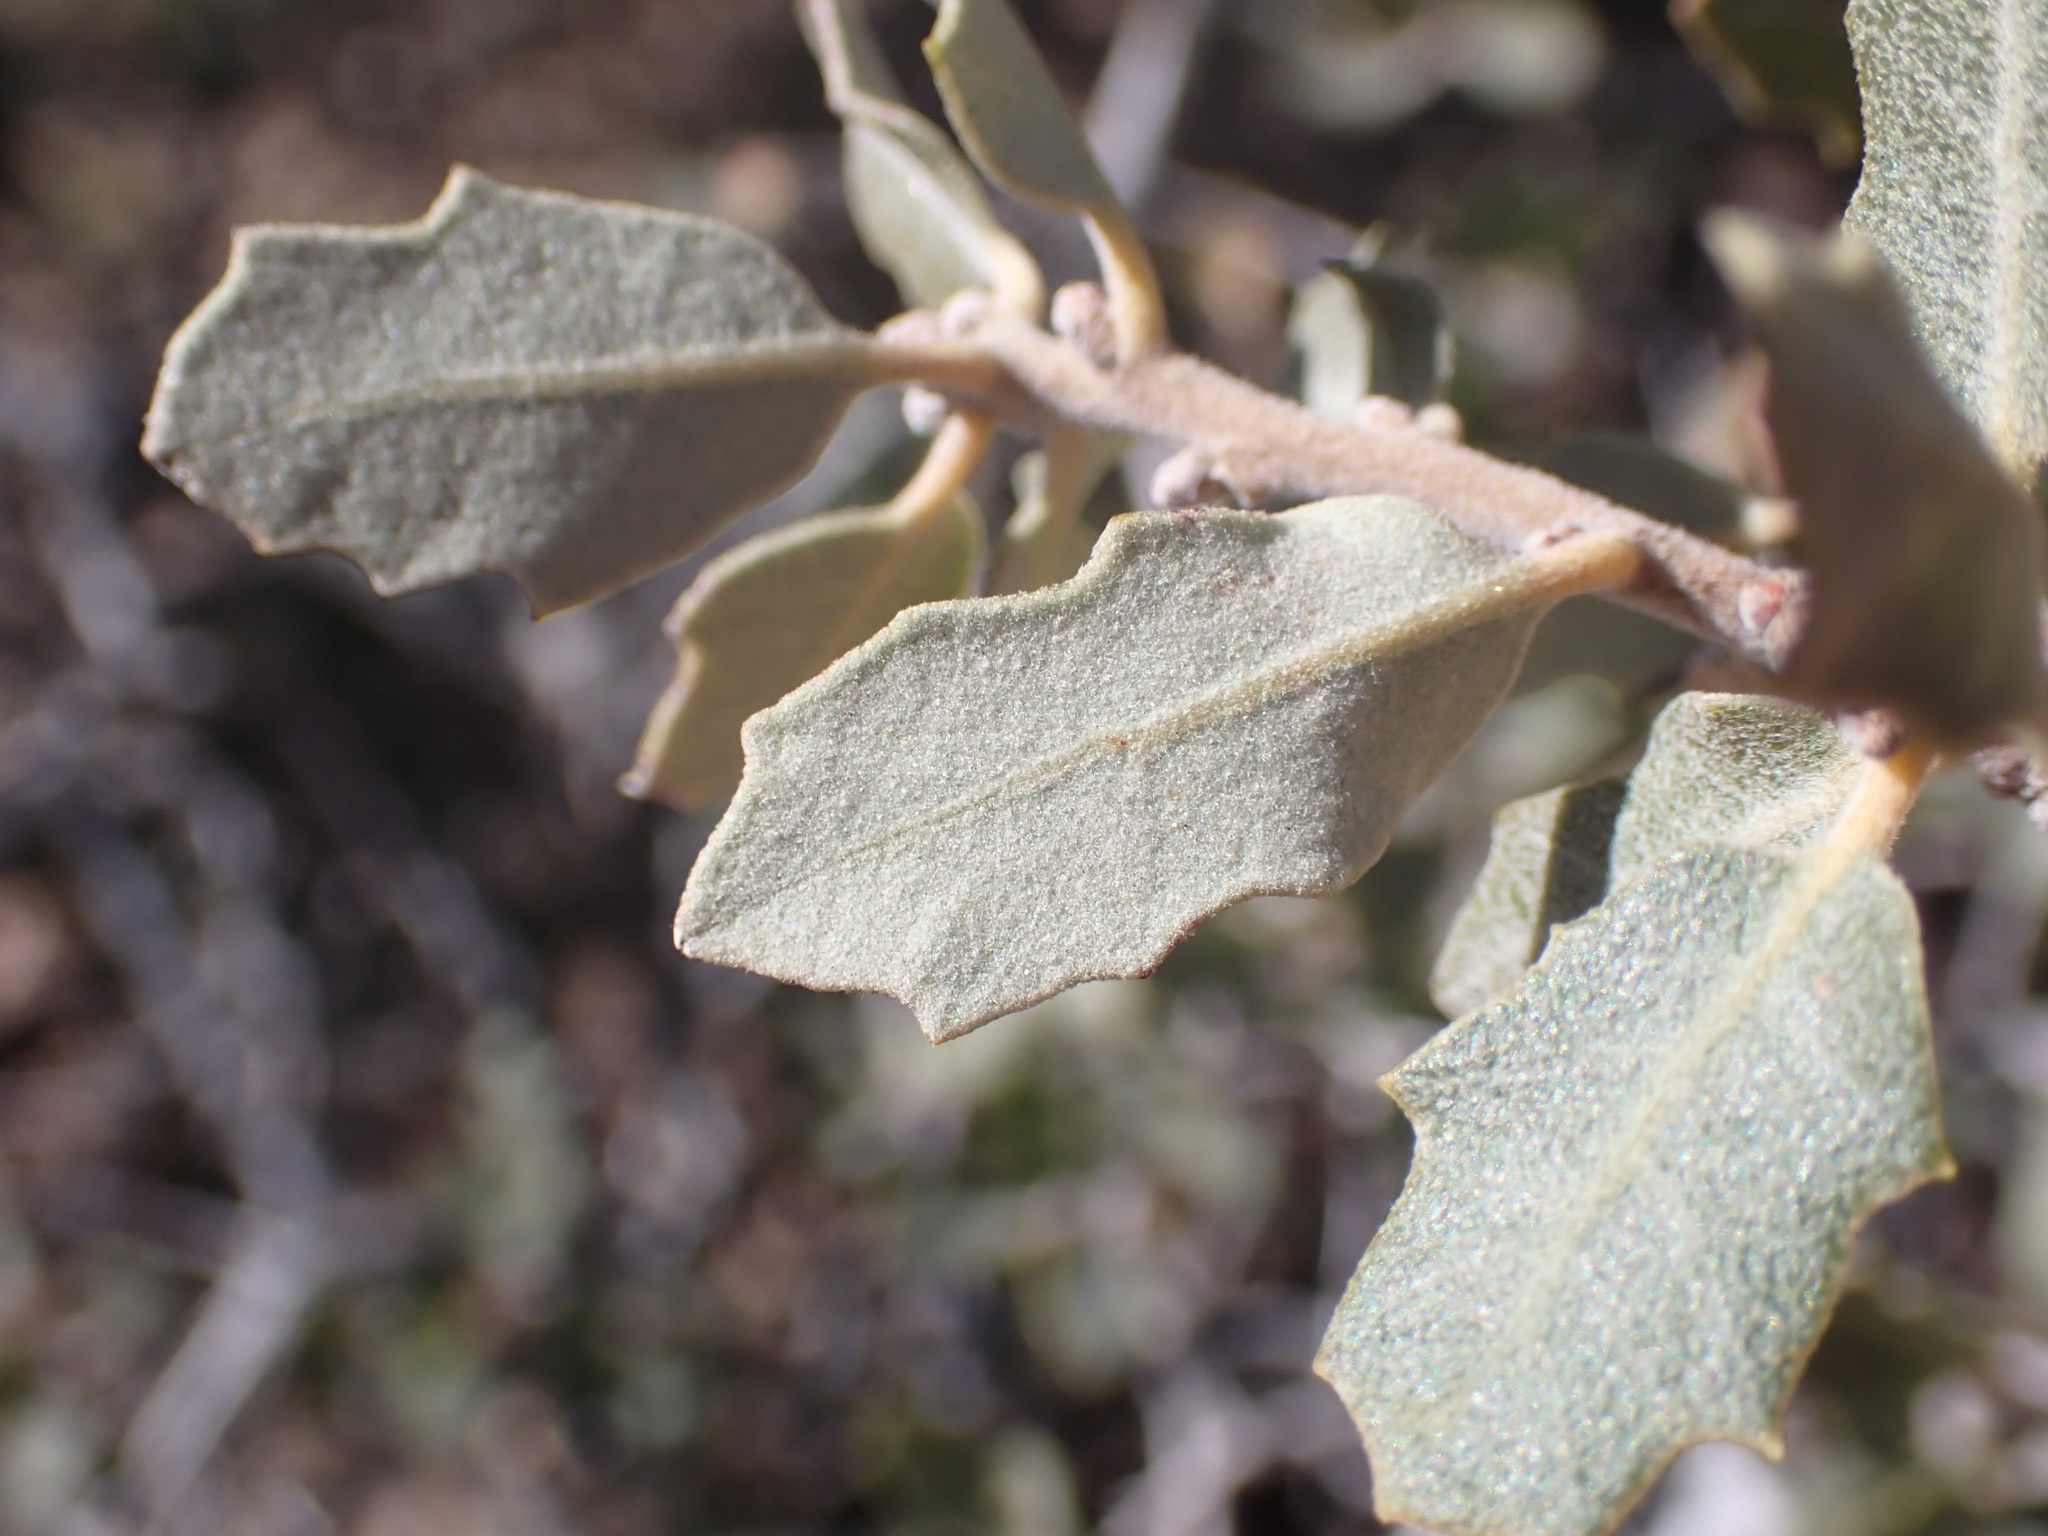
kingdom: Plantae
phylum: Tracheophyta
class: Magnoliopsida
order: Fagales
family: Fagaceae
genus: Quercus
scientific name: Quercus cornelius-mulleri
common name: Muller oak
